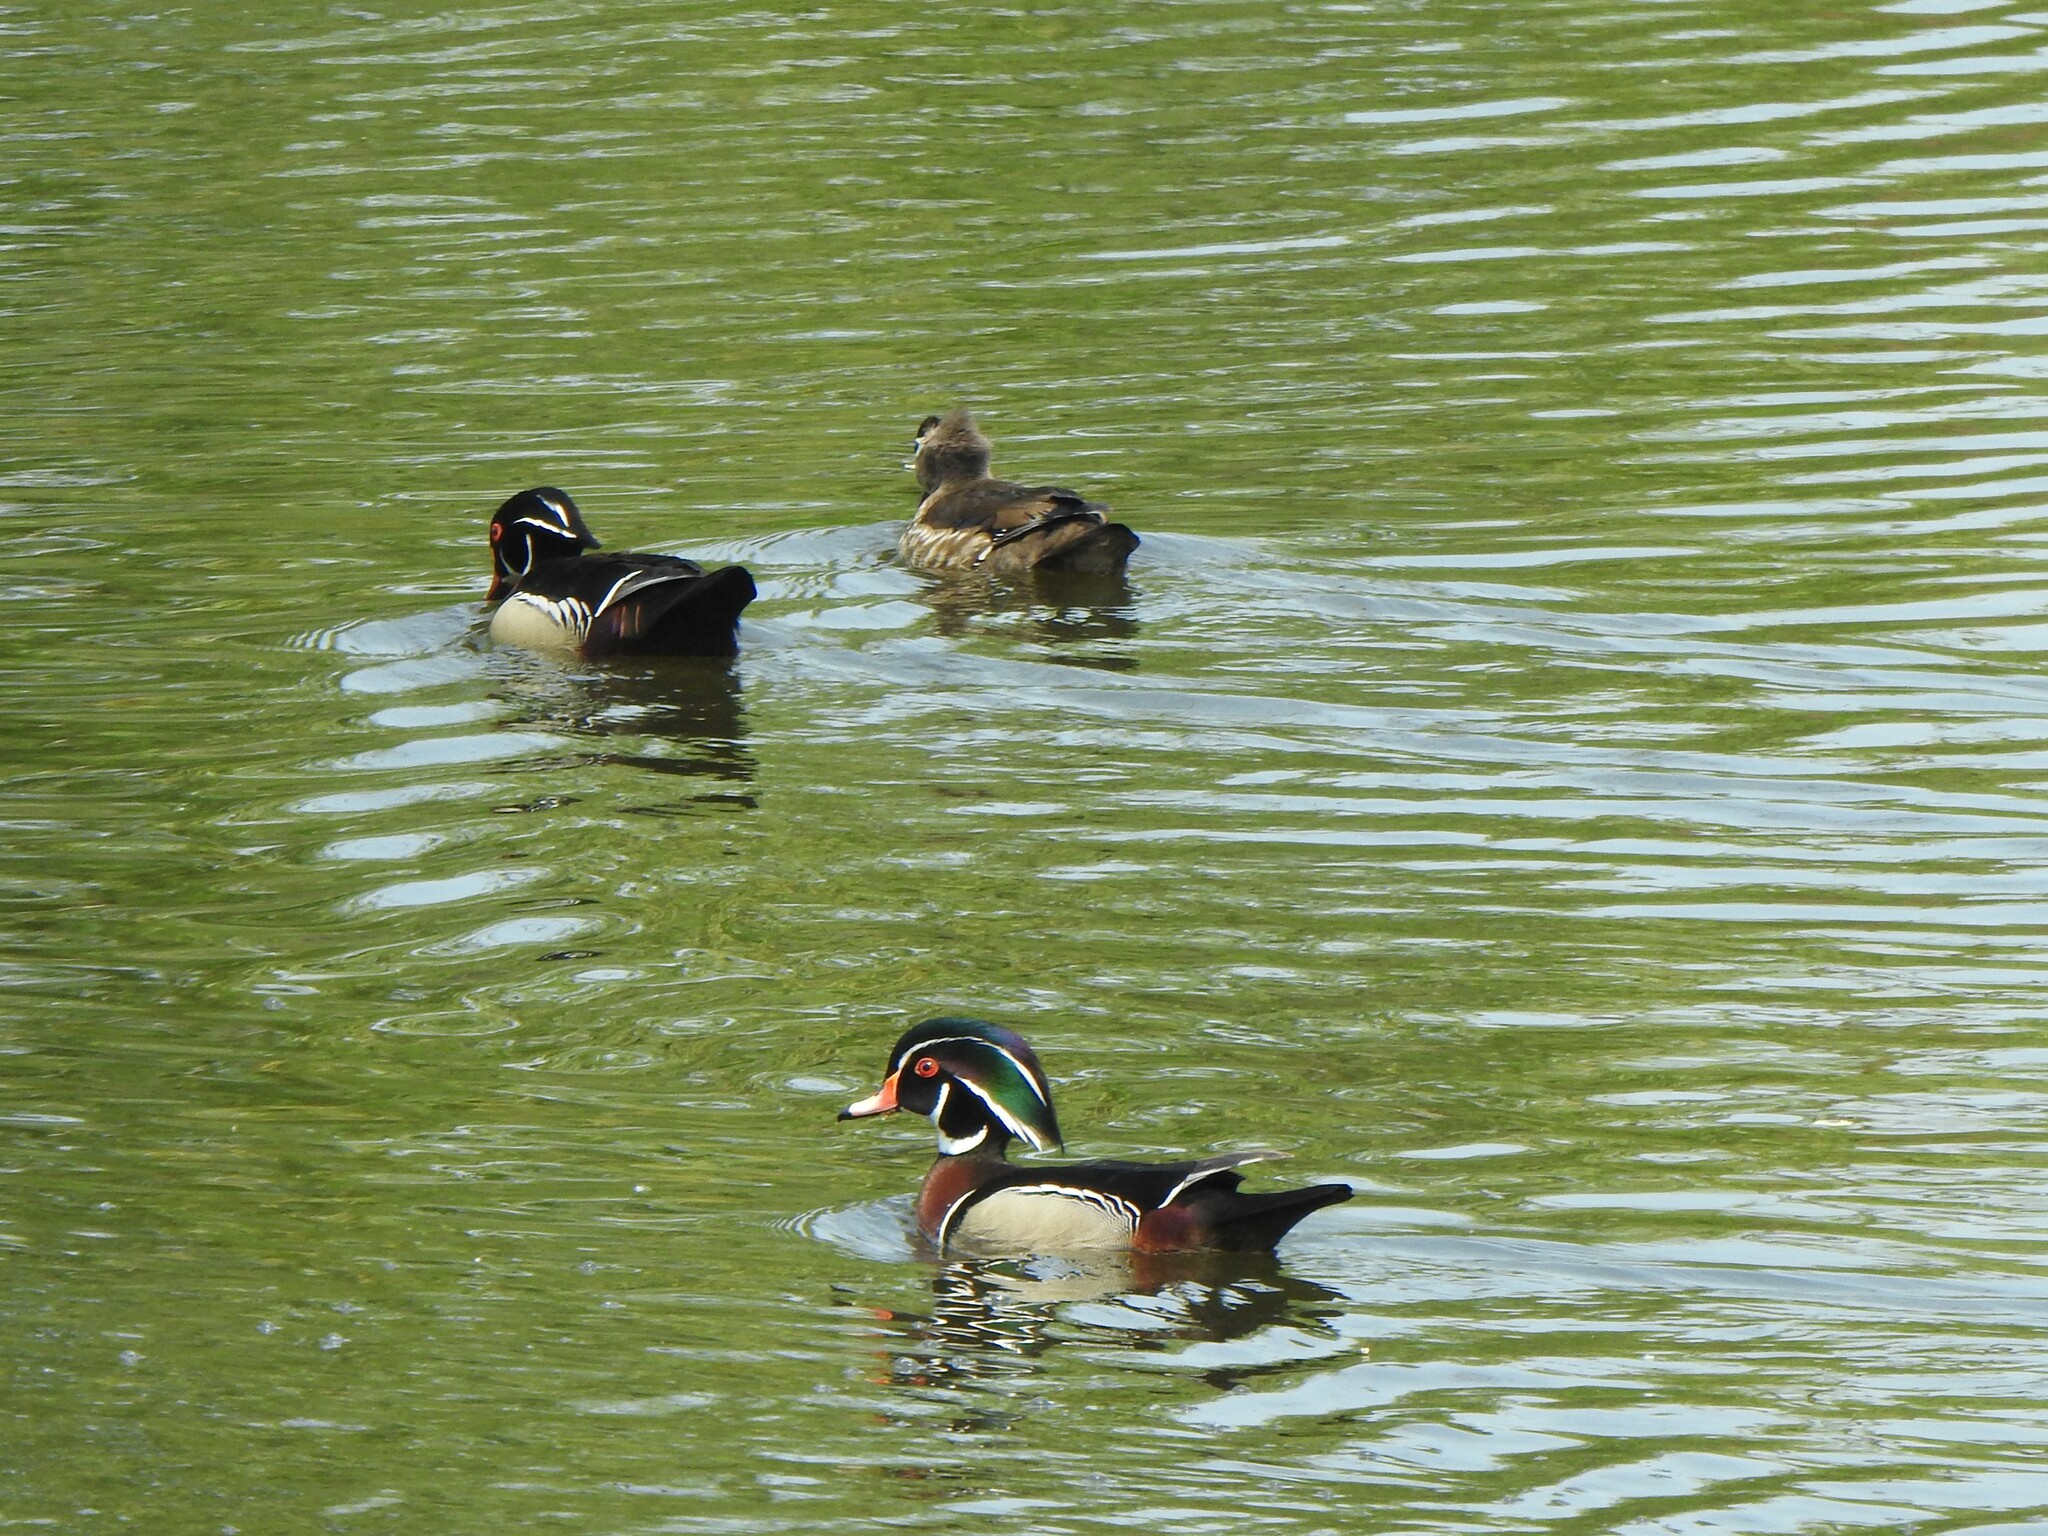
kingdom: Animalia
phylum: Chordata
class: Aves
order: Anseriformes
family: Anatidae
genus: Aix
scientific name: Aix sponsa
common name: Wood duck
